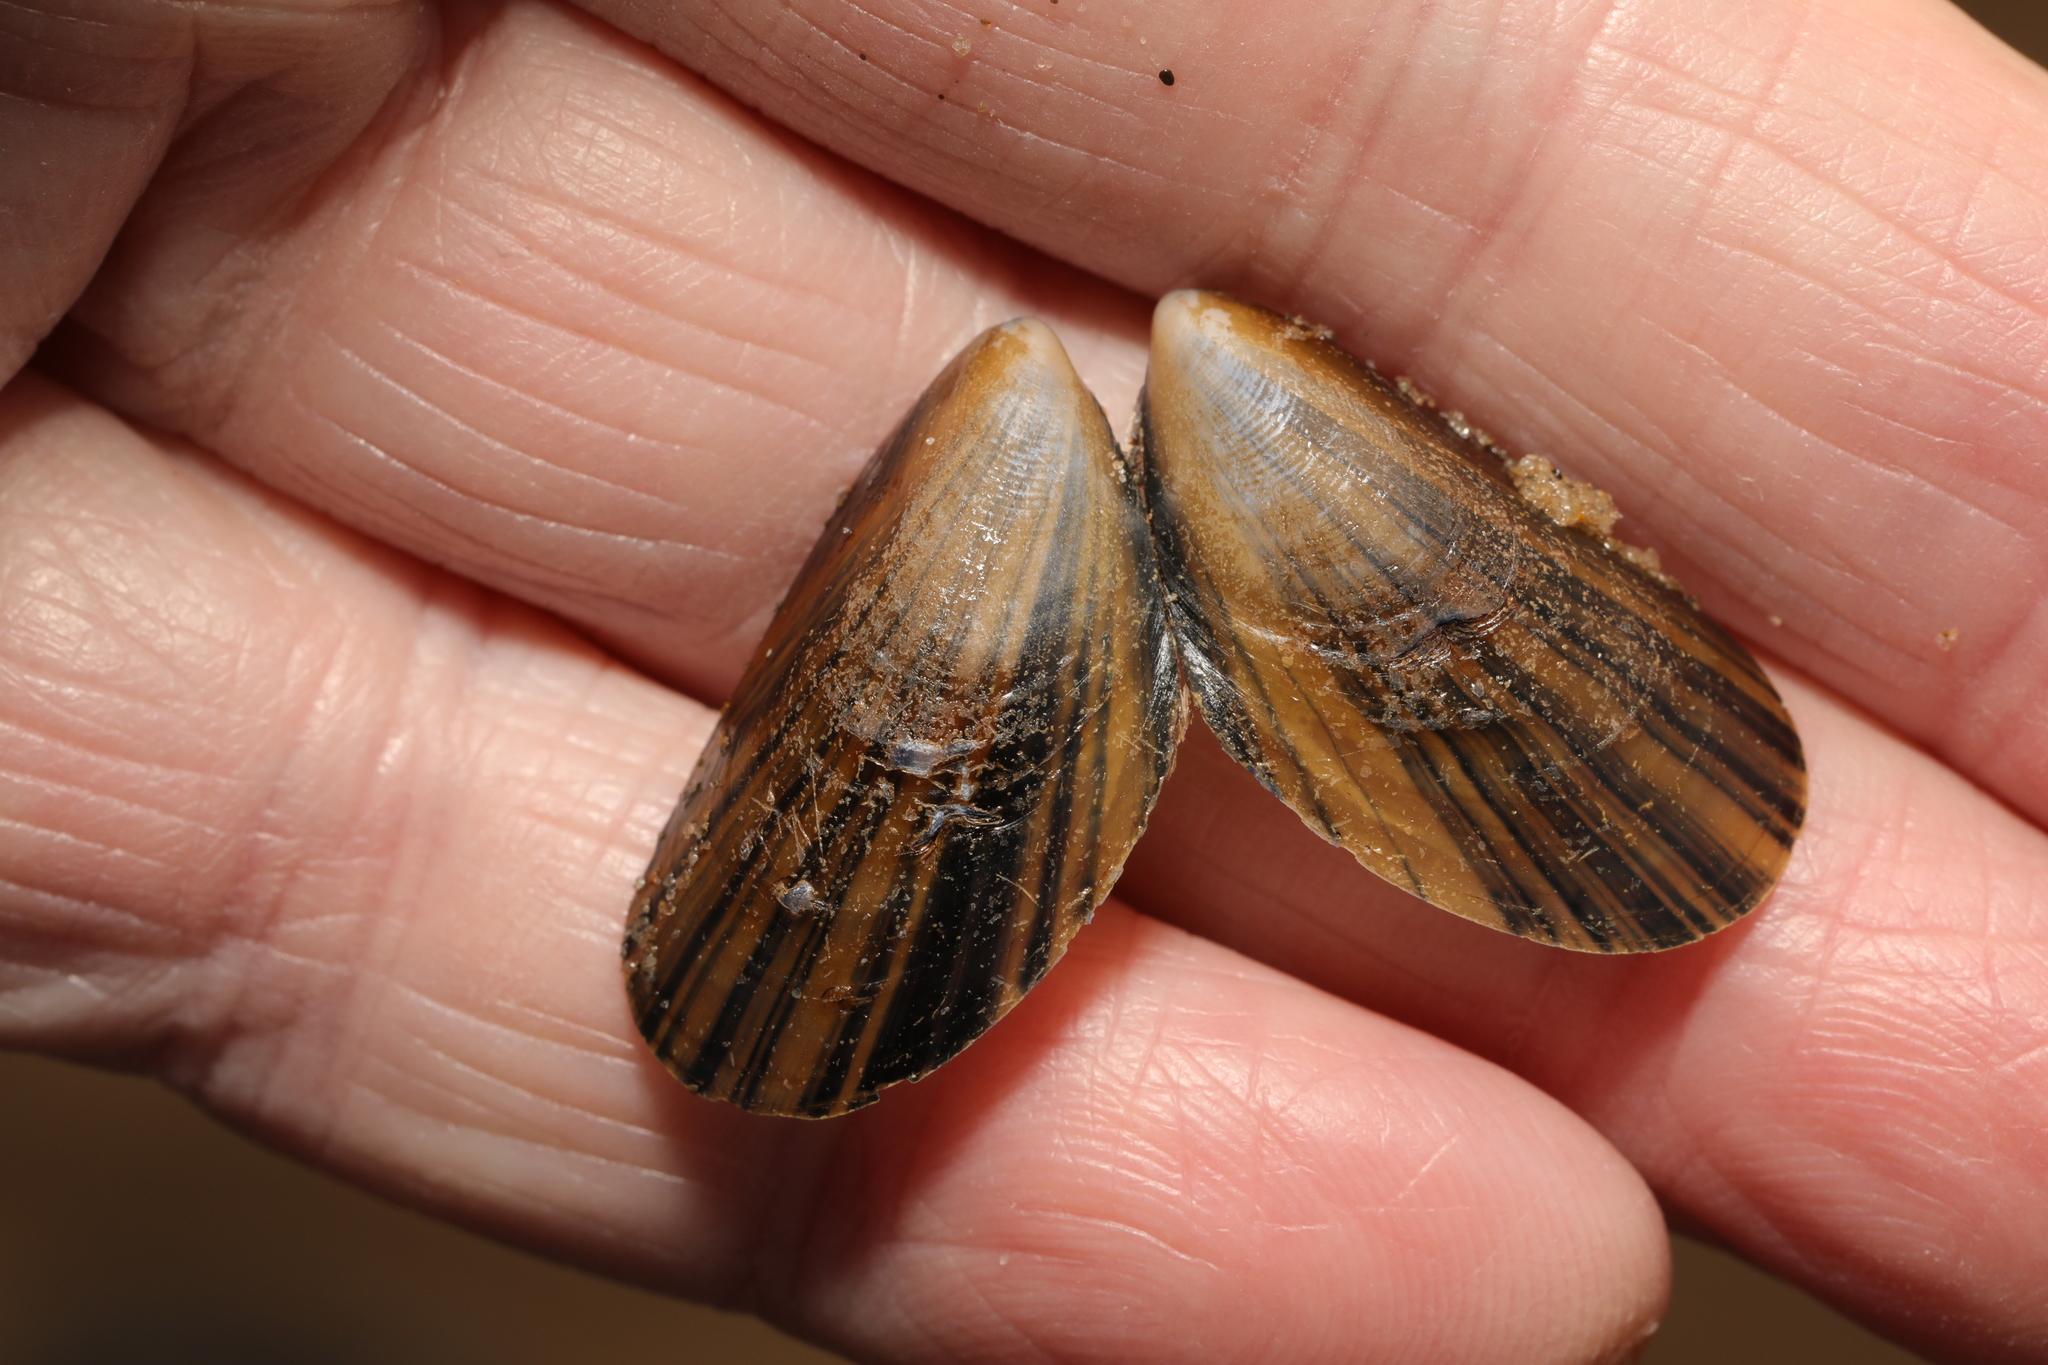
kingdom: Animalia
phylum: Mollusca
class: Bivalvia
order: Mytilida
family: Mytilidae
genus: Mytilus
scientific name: Mytilus edulis
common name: Blue mussel
